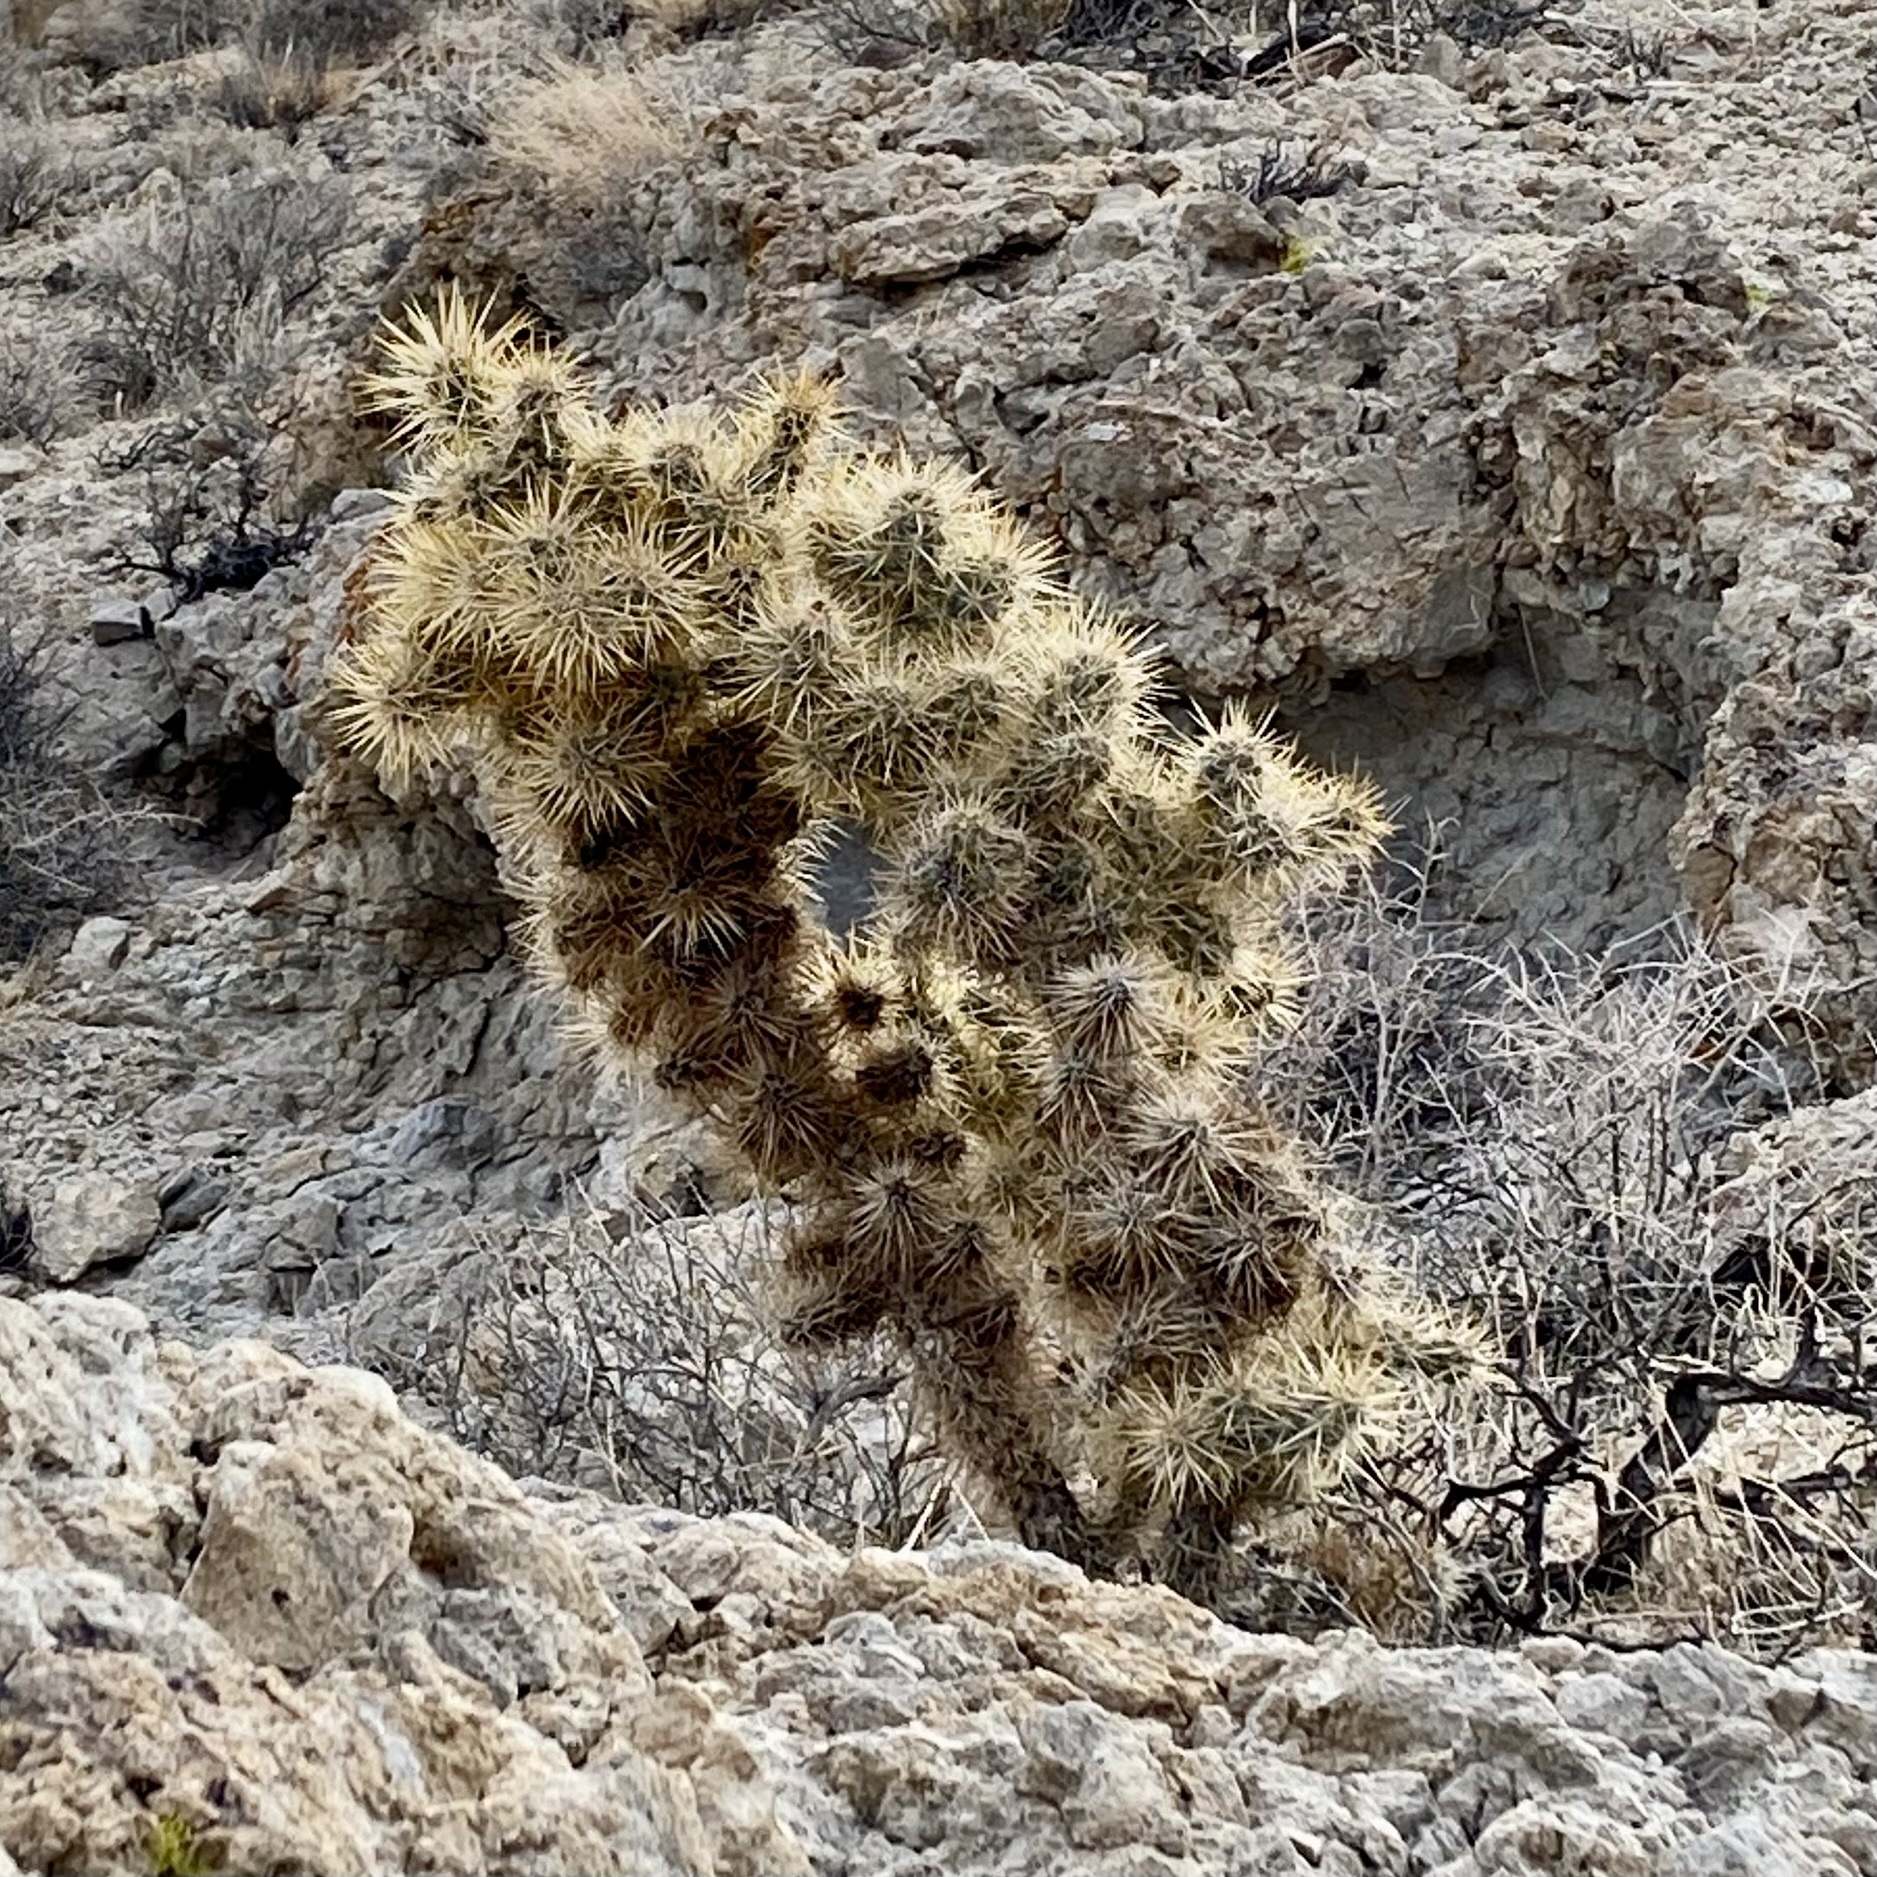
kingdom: Plantae
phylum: Tracheophyta
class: Magnoliopsida
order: Caryophyllales
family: Cactaceae
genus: Cylindropuntia
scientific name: Cylindropuntia echinocarpa
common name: Ground cholla
